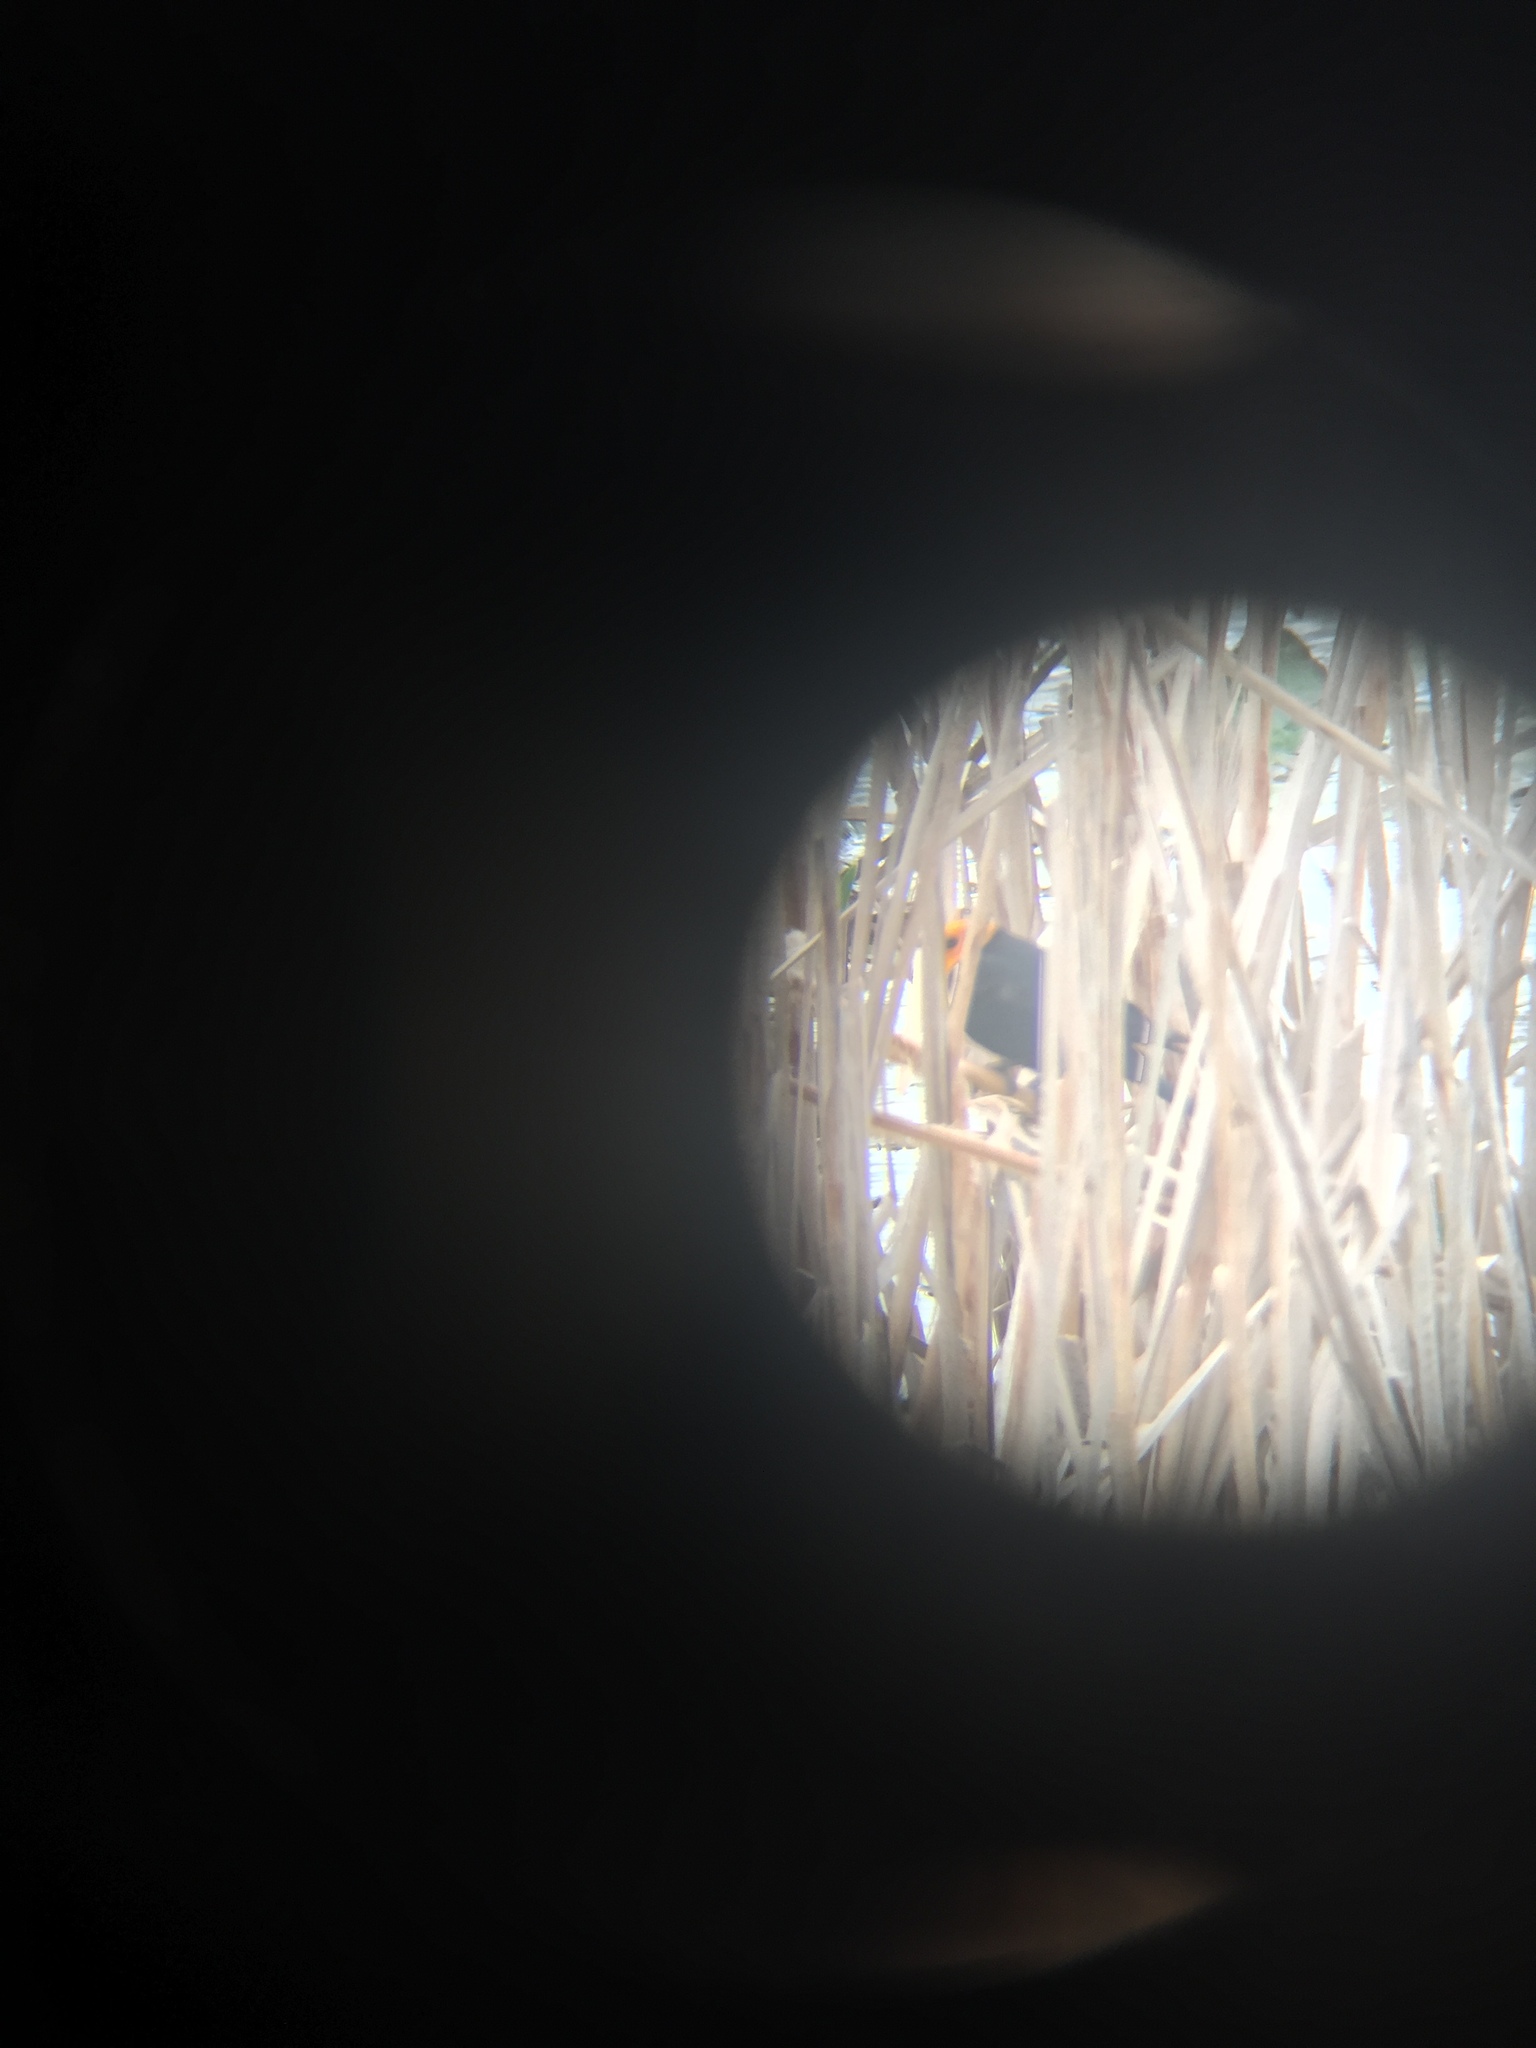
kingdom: Animalia
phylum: Chordata
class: Aves
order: Passeriformes
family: Icteridae
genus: Xanthocephalus
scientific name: Xanthocephalus xanthocephalus
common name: Yellow-headed blackbird
